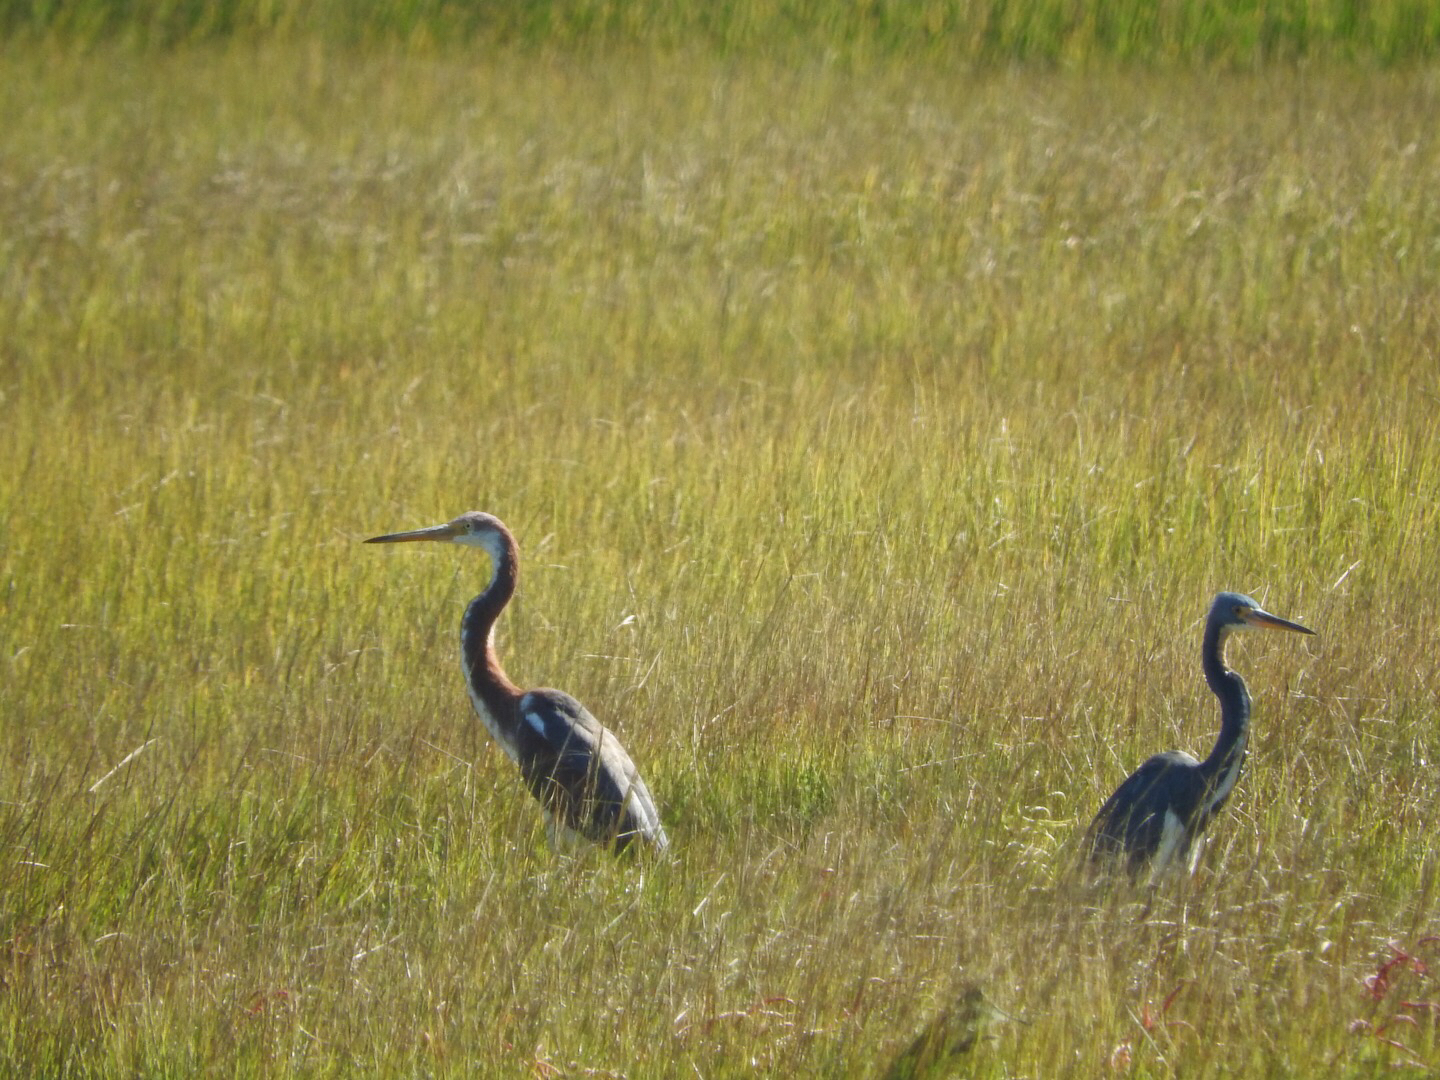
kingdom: Animalia
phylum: Chordata
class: Aves
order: Pelecaniformes
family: Ardeidae
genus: Egretta
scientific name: Egretta tricolor
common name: Tricolored heron
